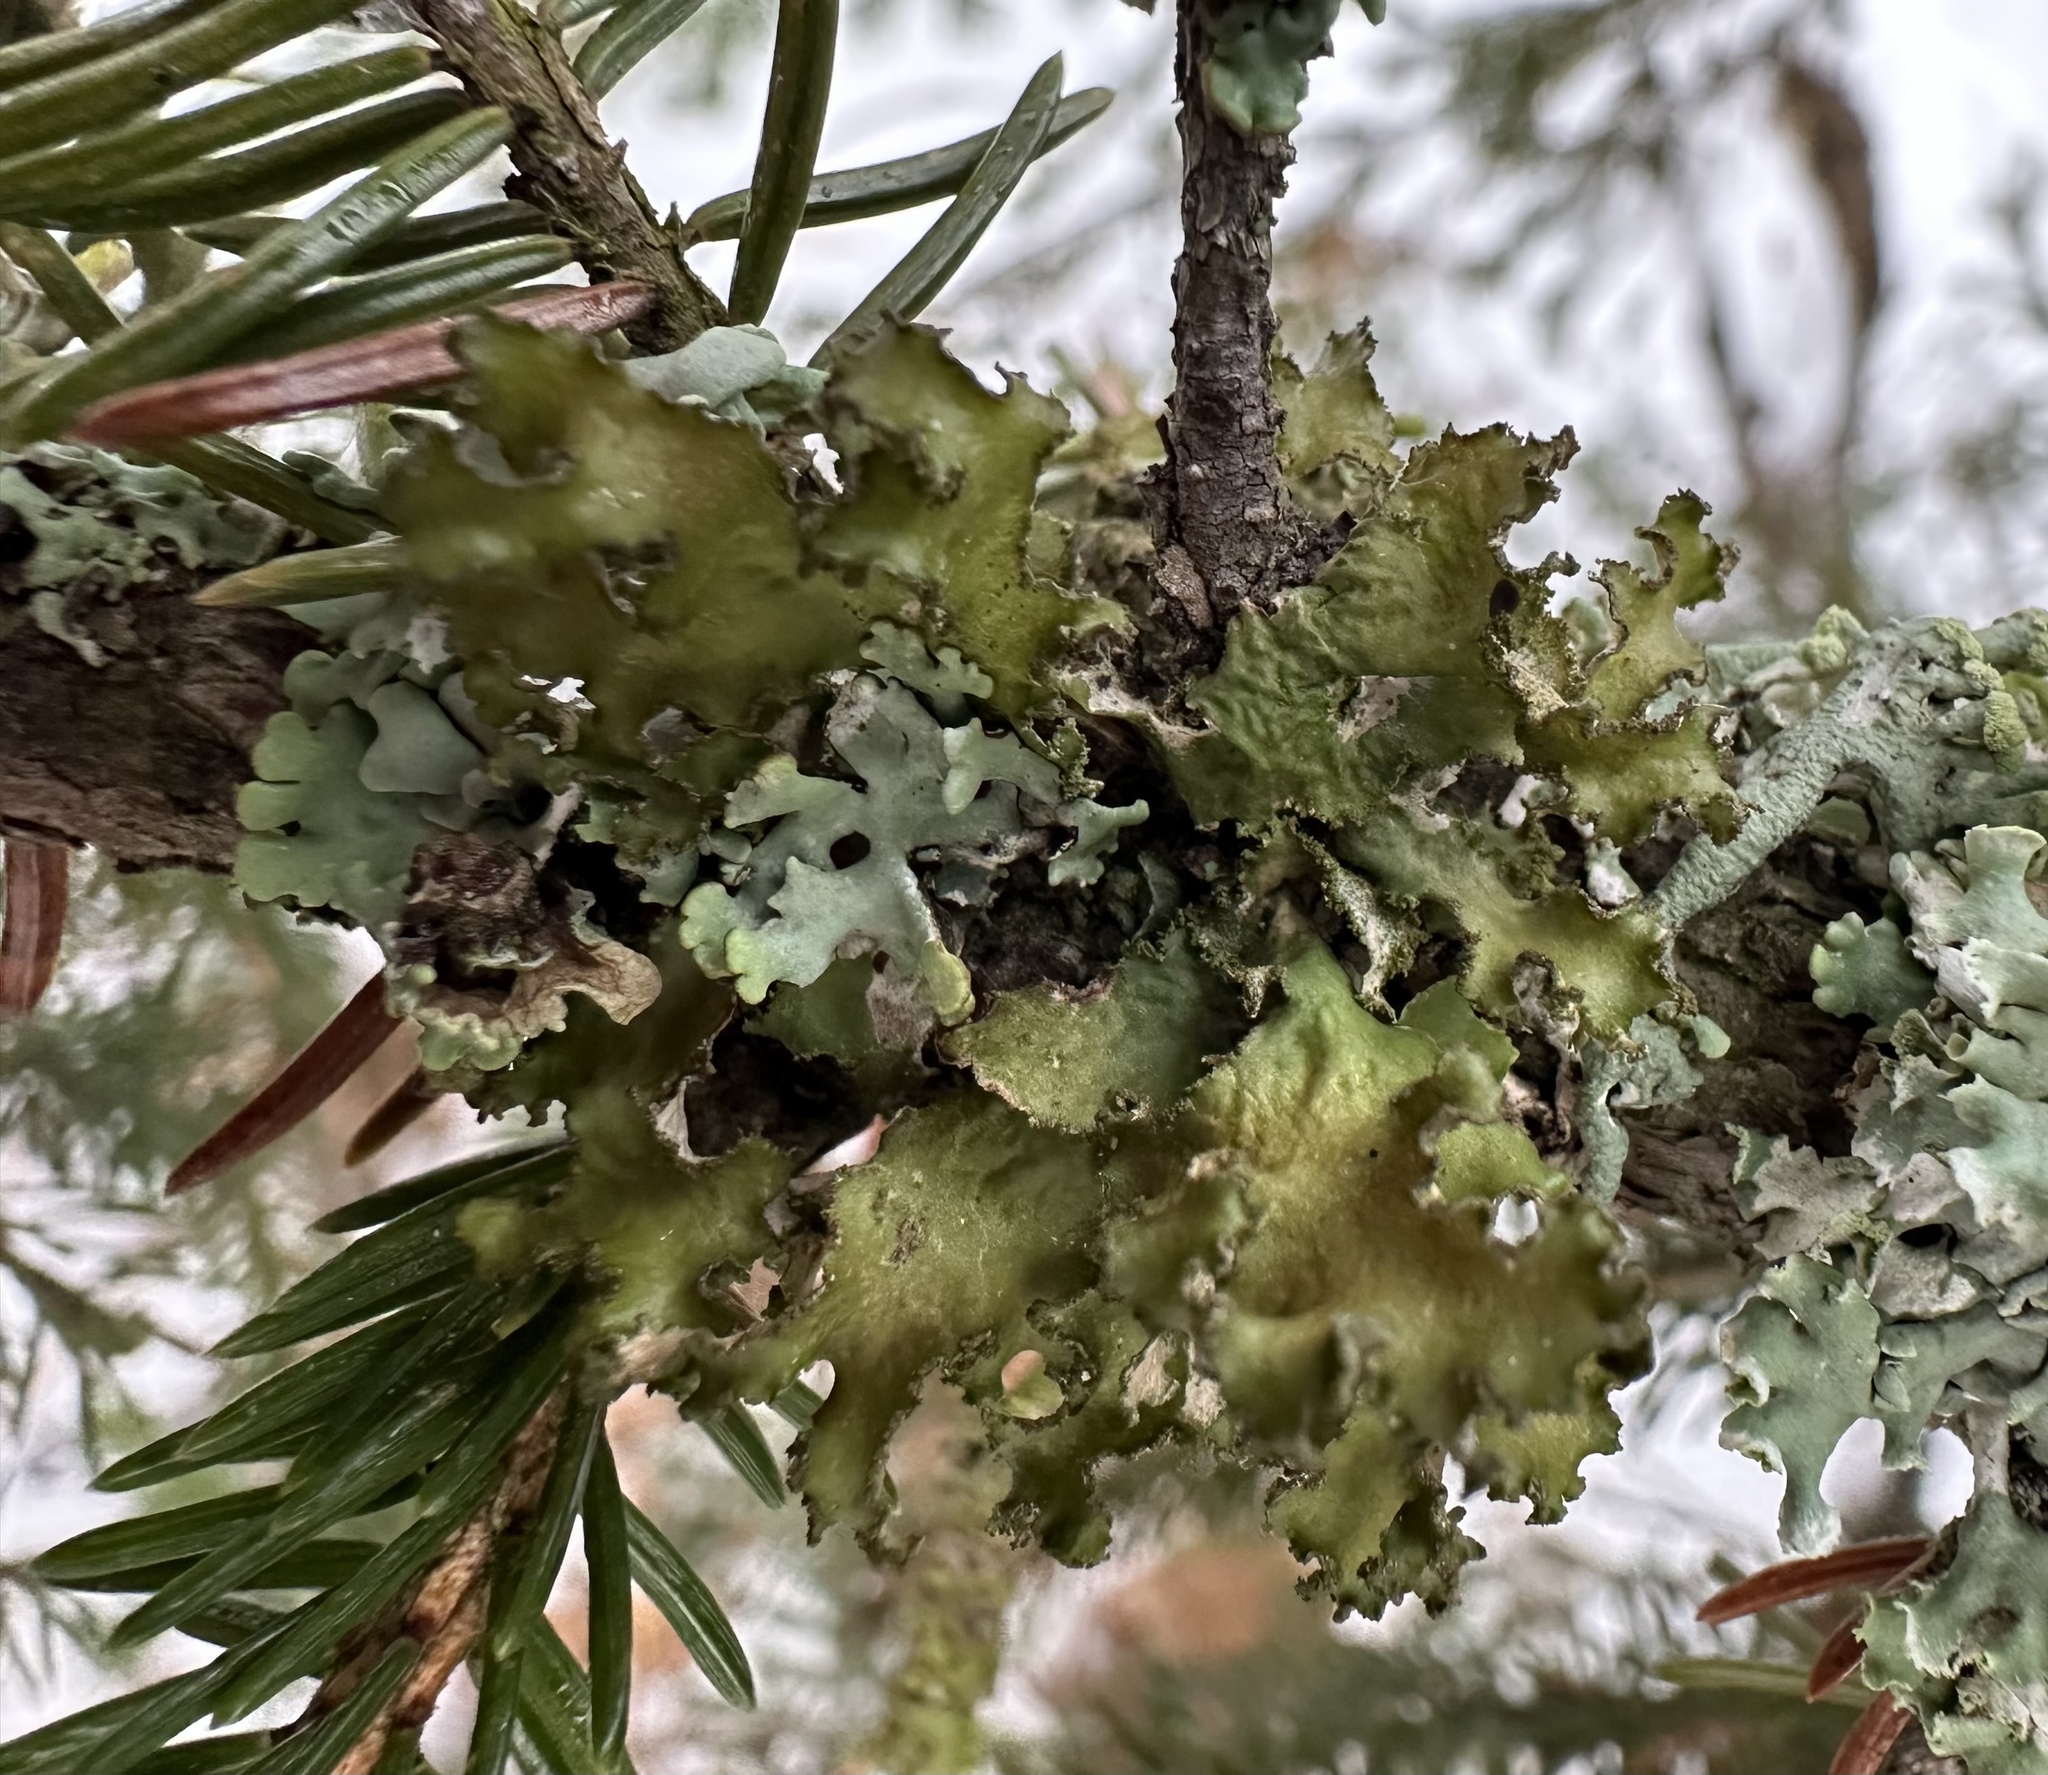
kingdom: Fungi
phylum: Ascomycota
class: Lecanoromycetes
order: Lecanorales
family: Parmeliaceae
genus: Nephromopsis
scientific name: Nephromopsis chlorophylla
